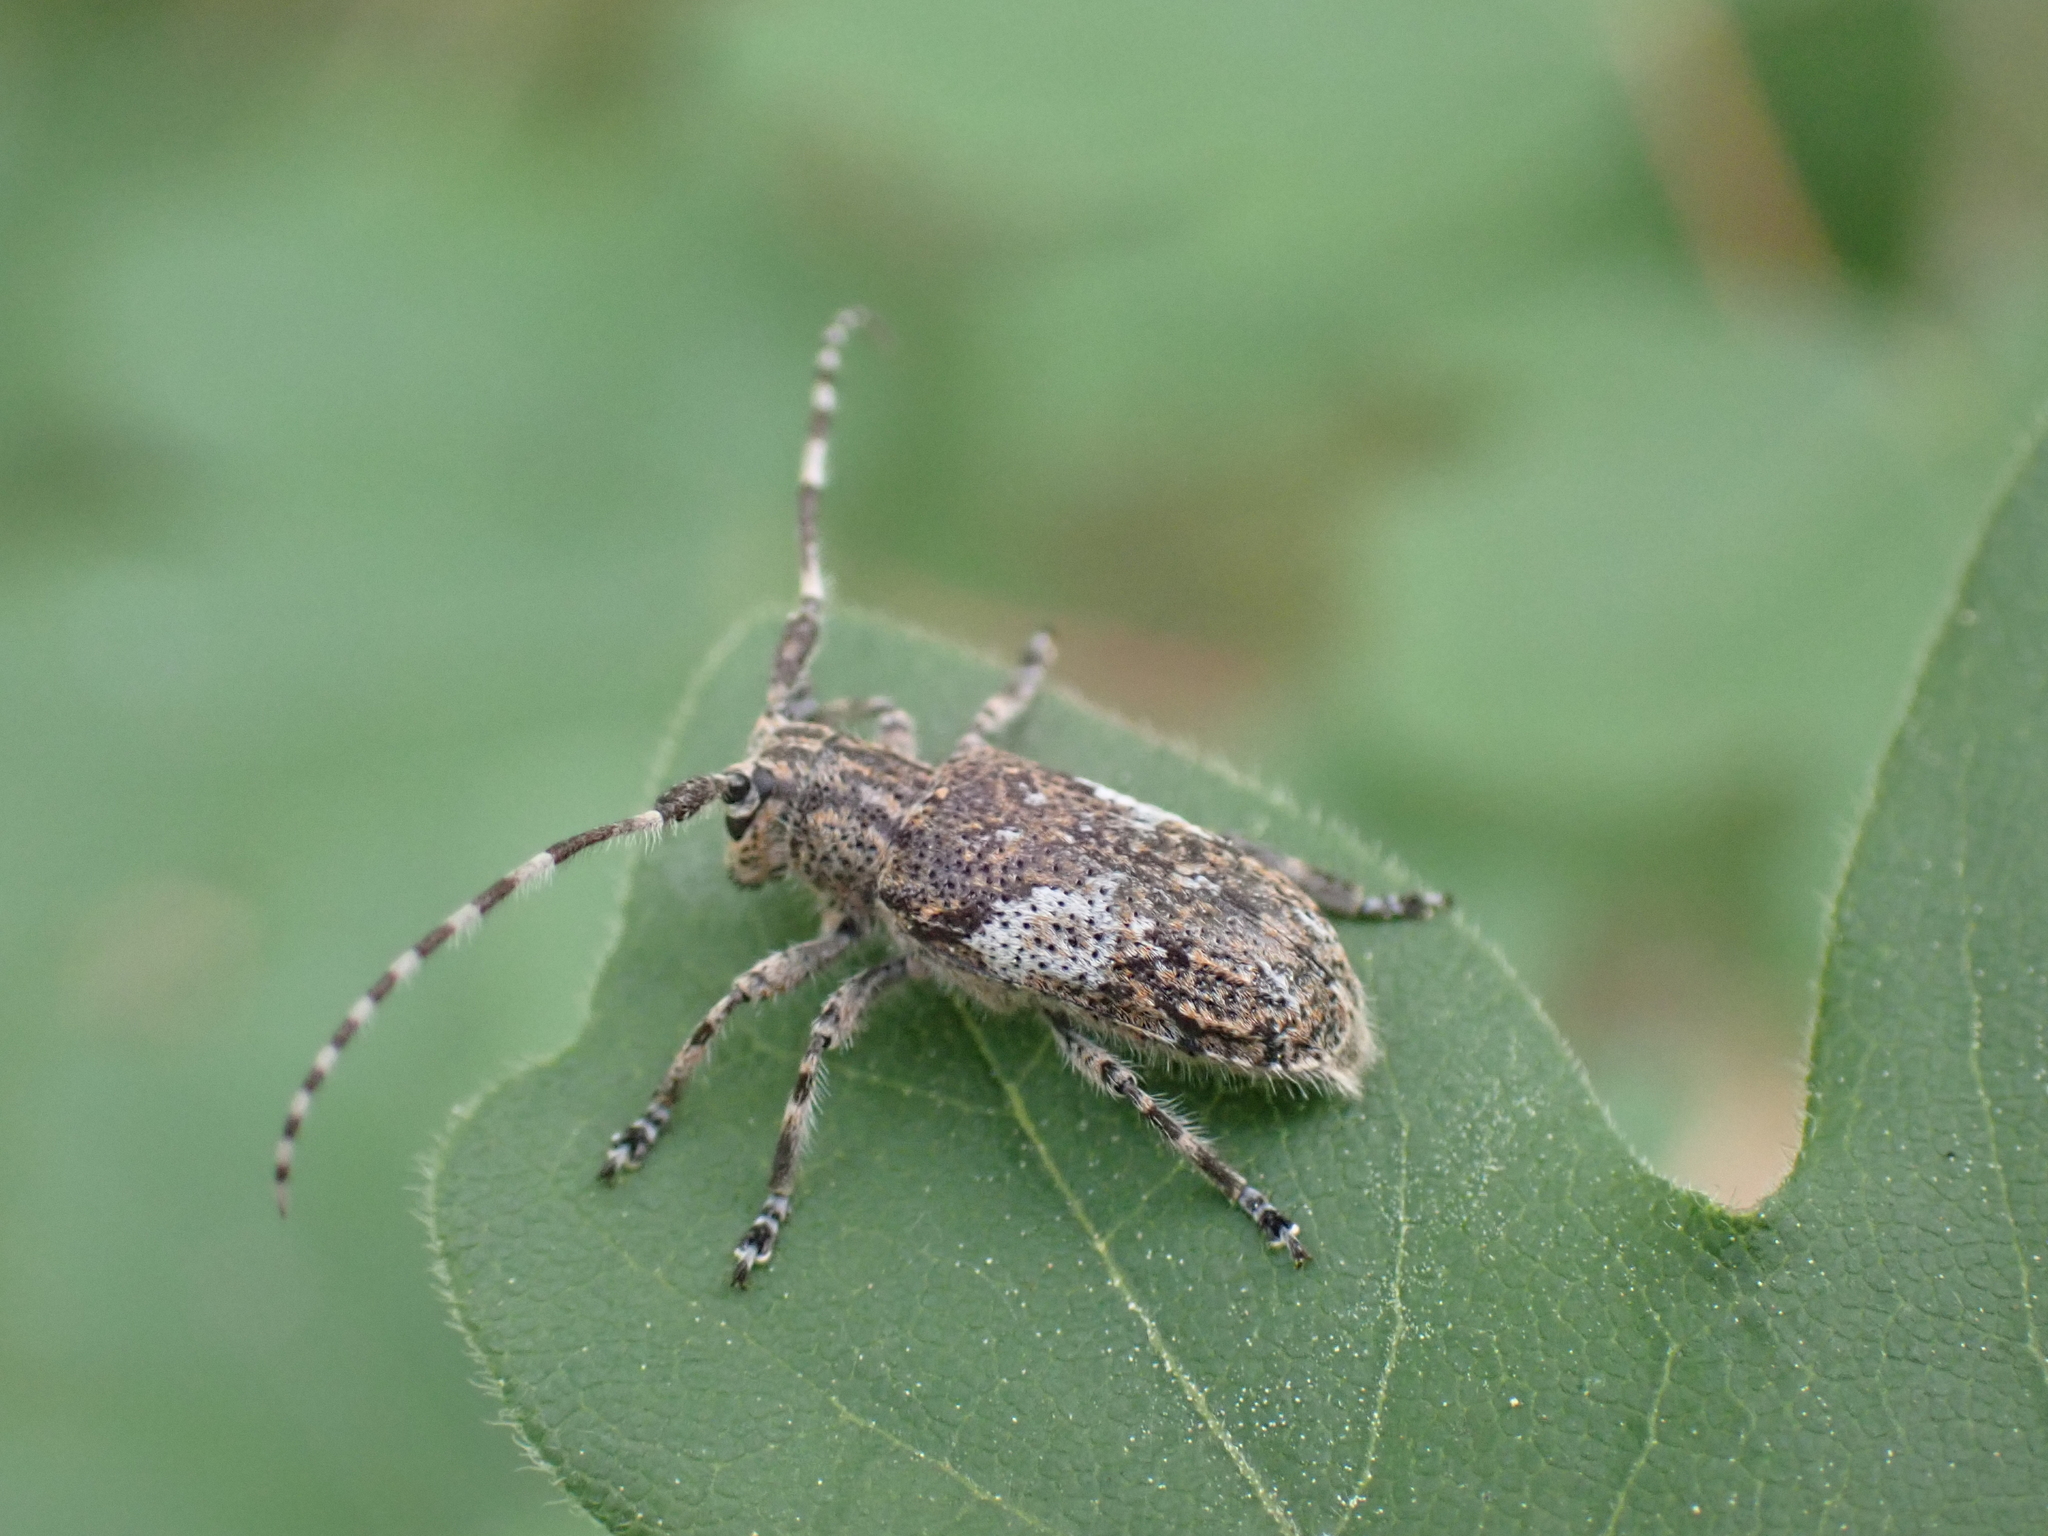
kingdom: Animalia
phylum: Arthropoda
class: Insecta
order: Coleoptera
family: Cerambycidae
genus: Mesosa
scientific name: Mesosa nebulosa
